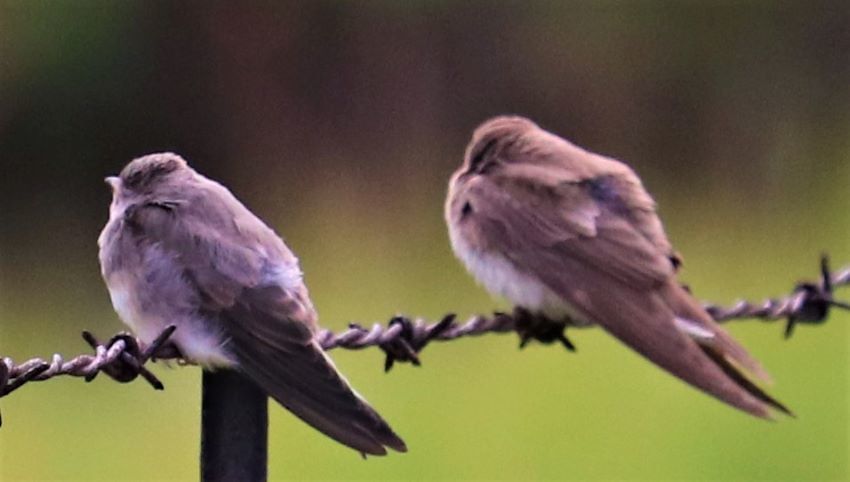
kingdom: Animalia
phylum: Chordata
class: Aves
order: Passeriformes
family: Hirundinidae
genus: Riparia
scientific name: Riparia cincta
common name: Banded martin
